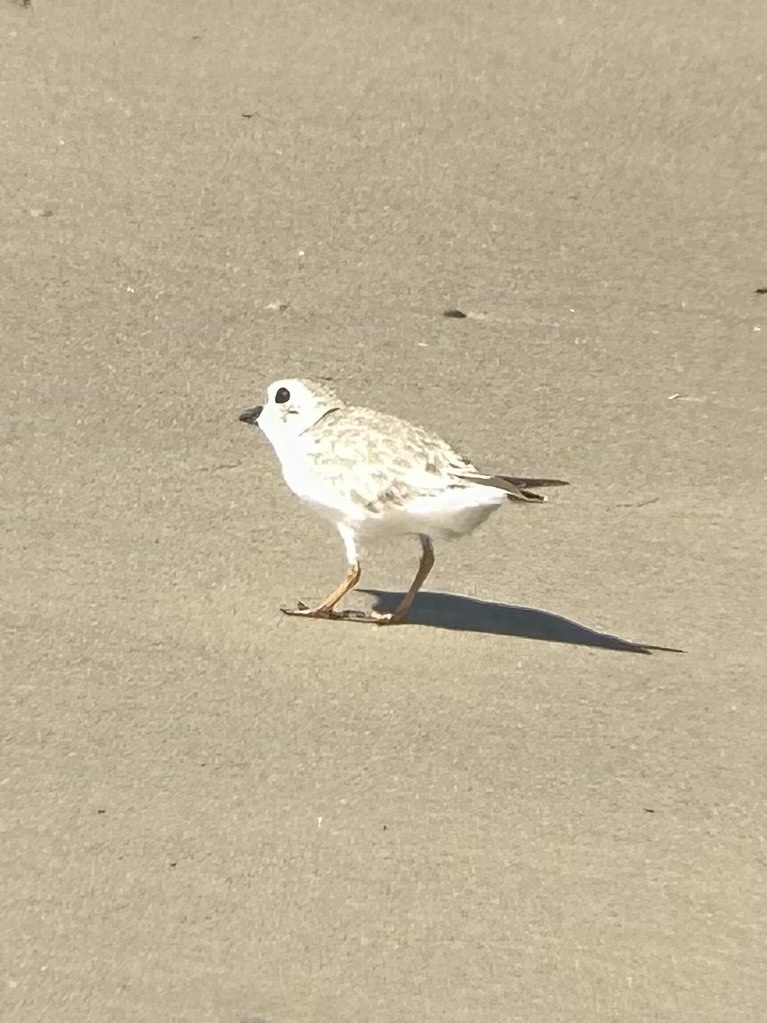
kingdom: Animalia
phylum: Chordata
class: Aves
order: Charadriiformes
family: Charadriidae
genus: Charadrius
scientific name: Charadrius melodus
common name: Piping plover
